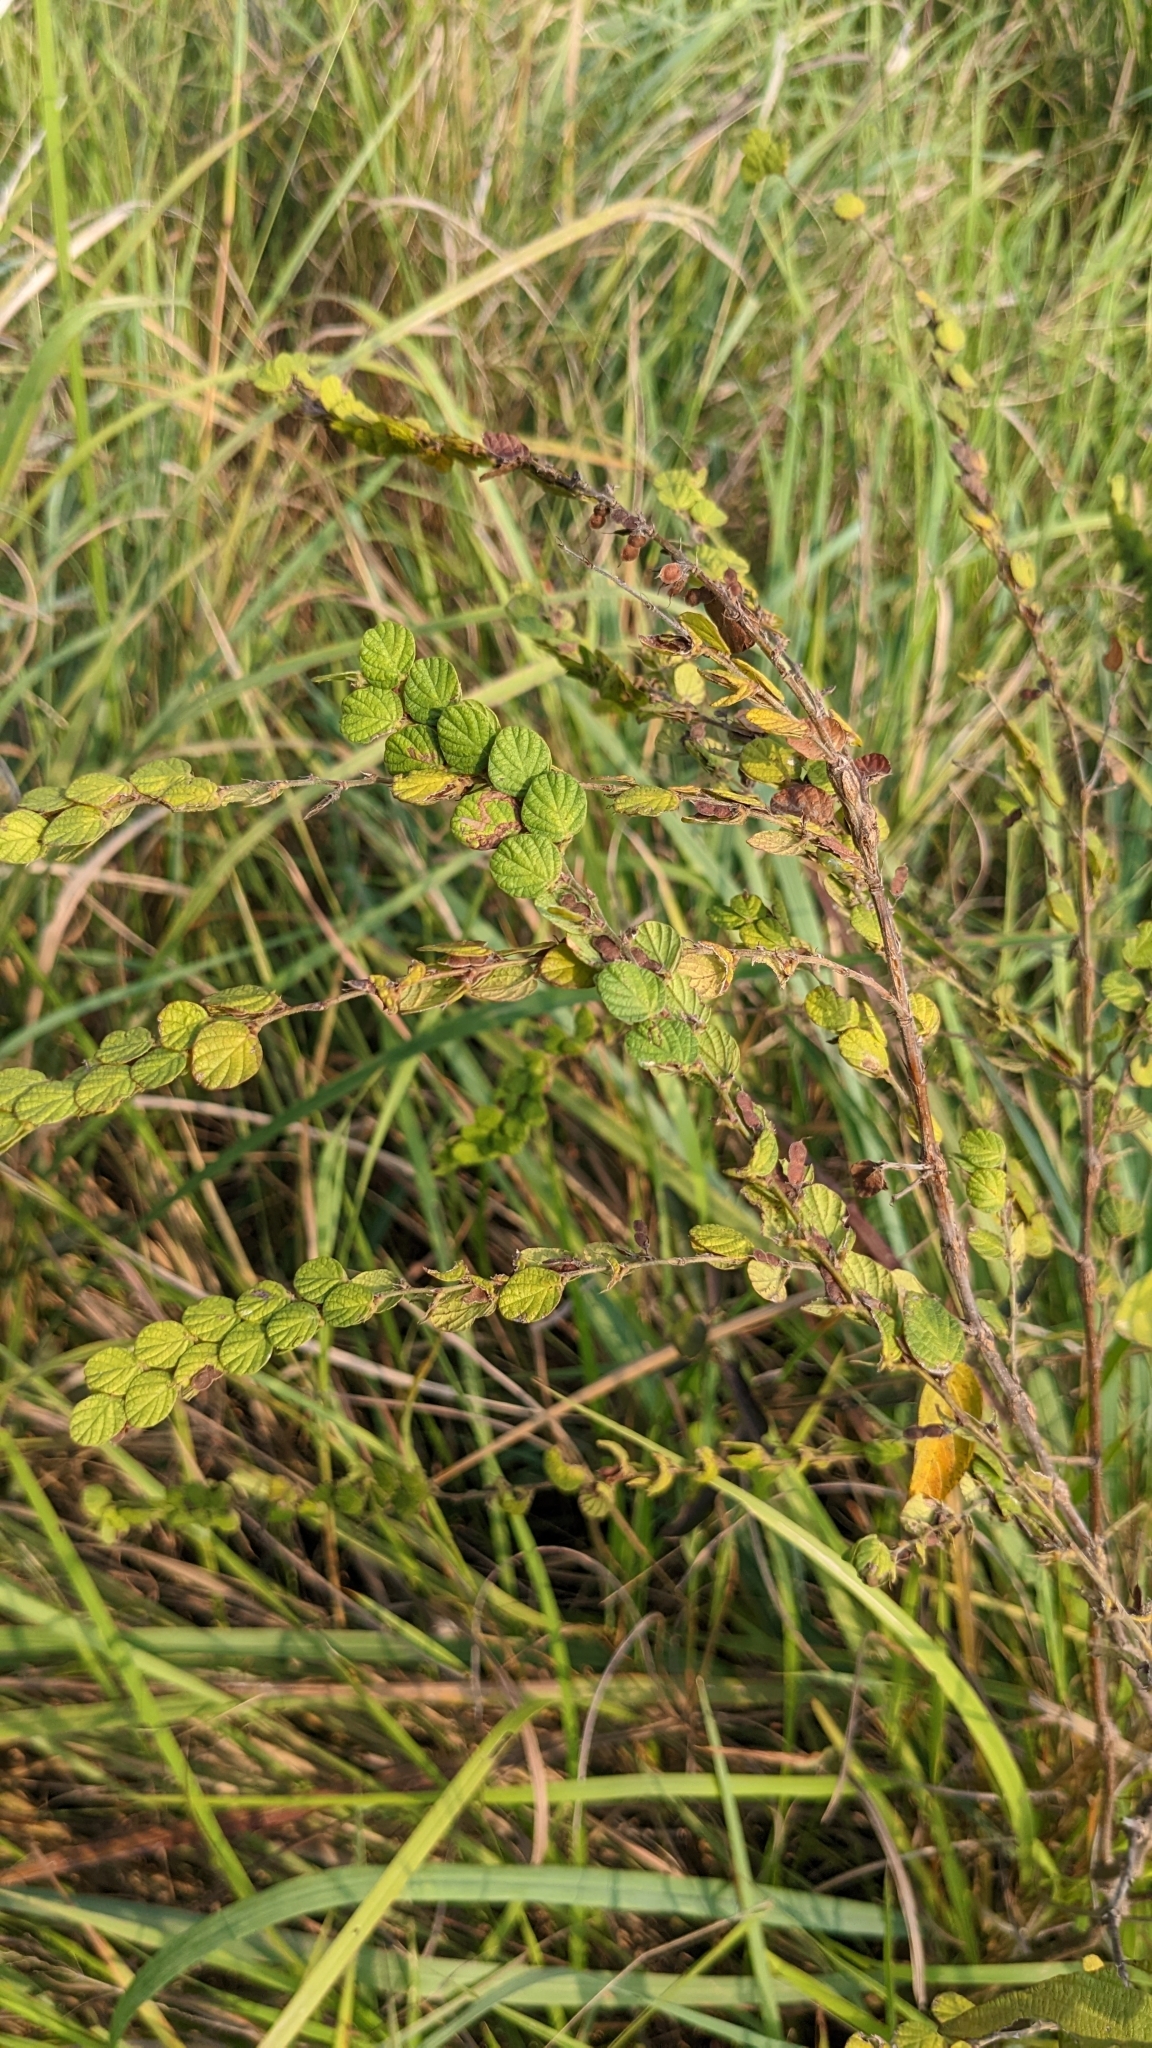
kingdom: Plantae
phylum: Tracheophyta
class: Magnoliopsida
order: Fabales
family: Fabaceae
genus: Phyllodium
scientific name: Phyllodium pulchellum
